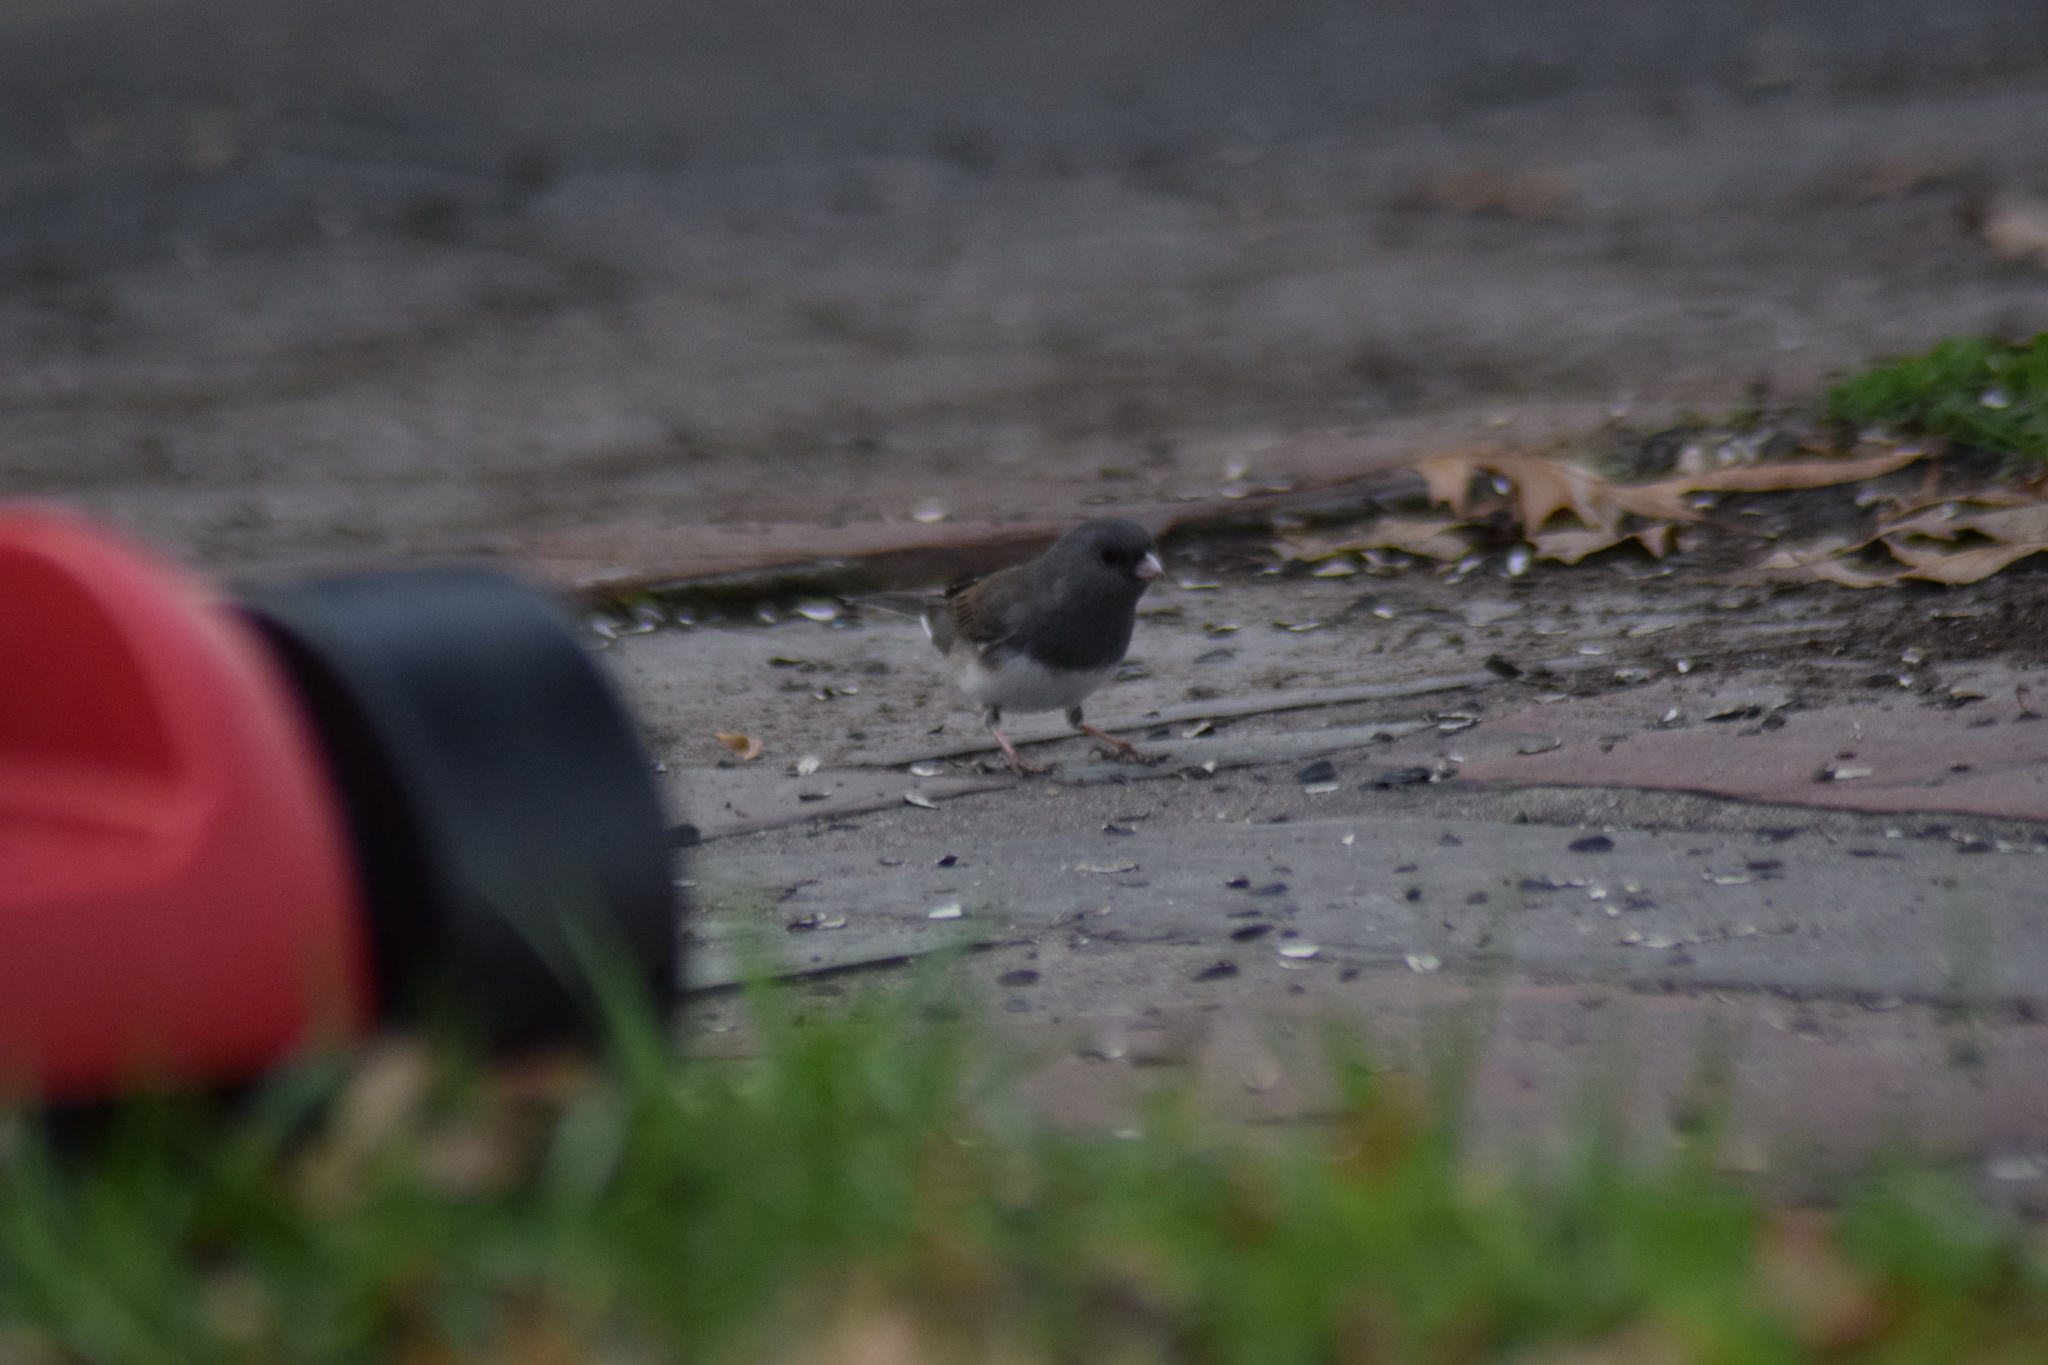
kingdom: Animalia
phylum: Chordata
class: Aves
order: Passeriformes
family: Passerellidae
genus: Junco
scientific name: Junco hyemalis
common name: Dark-eyed junco
